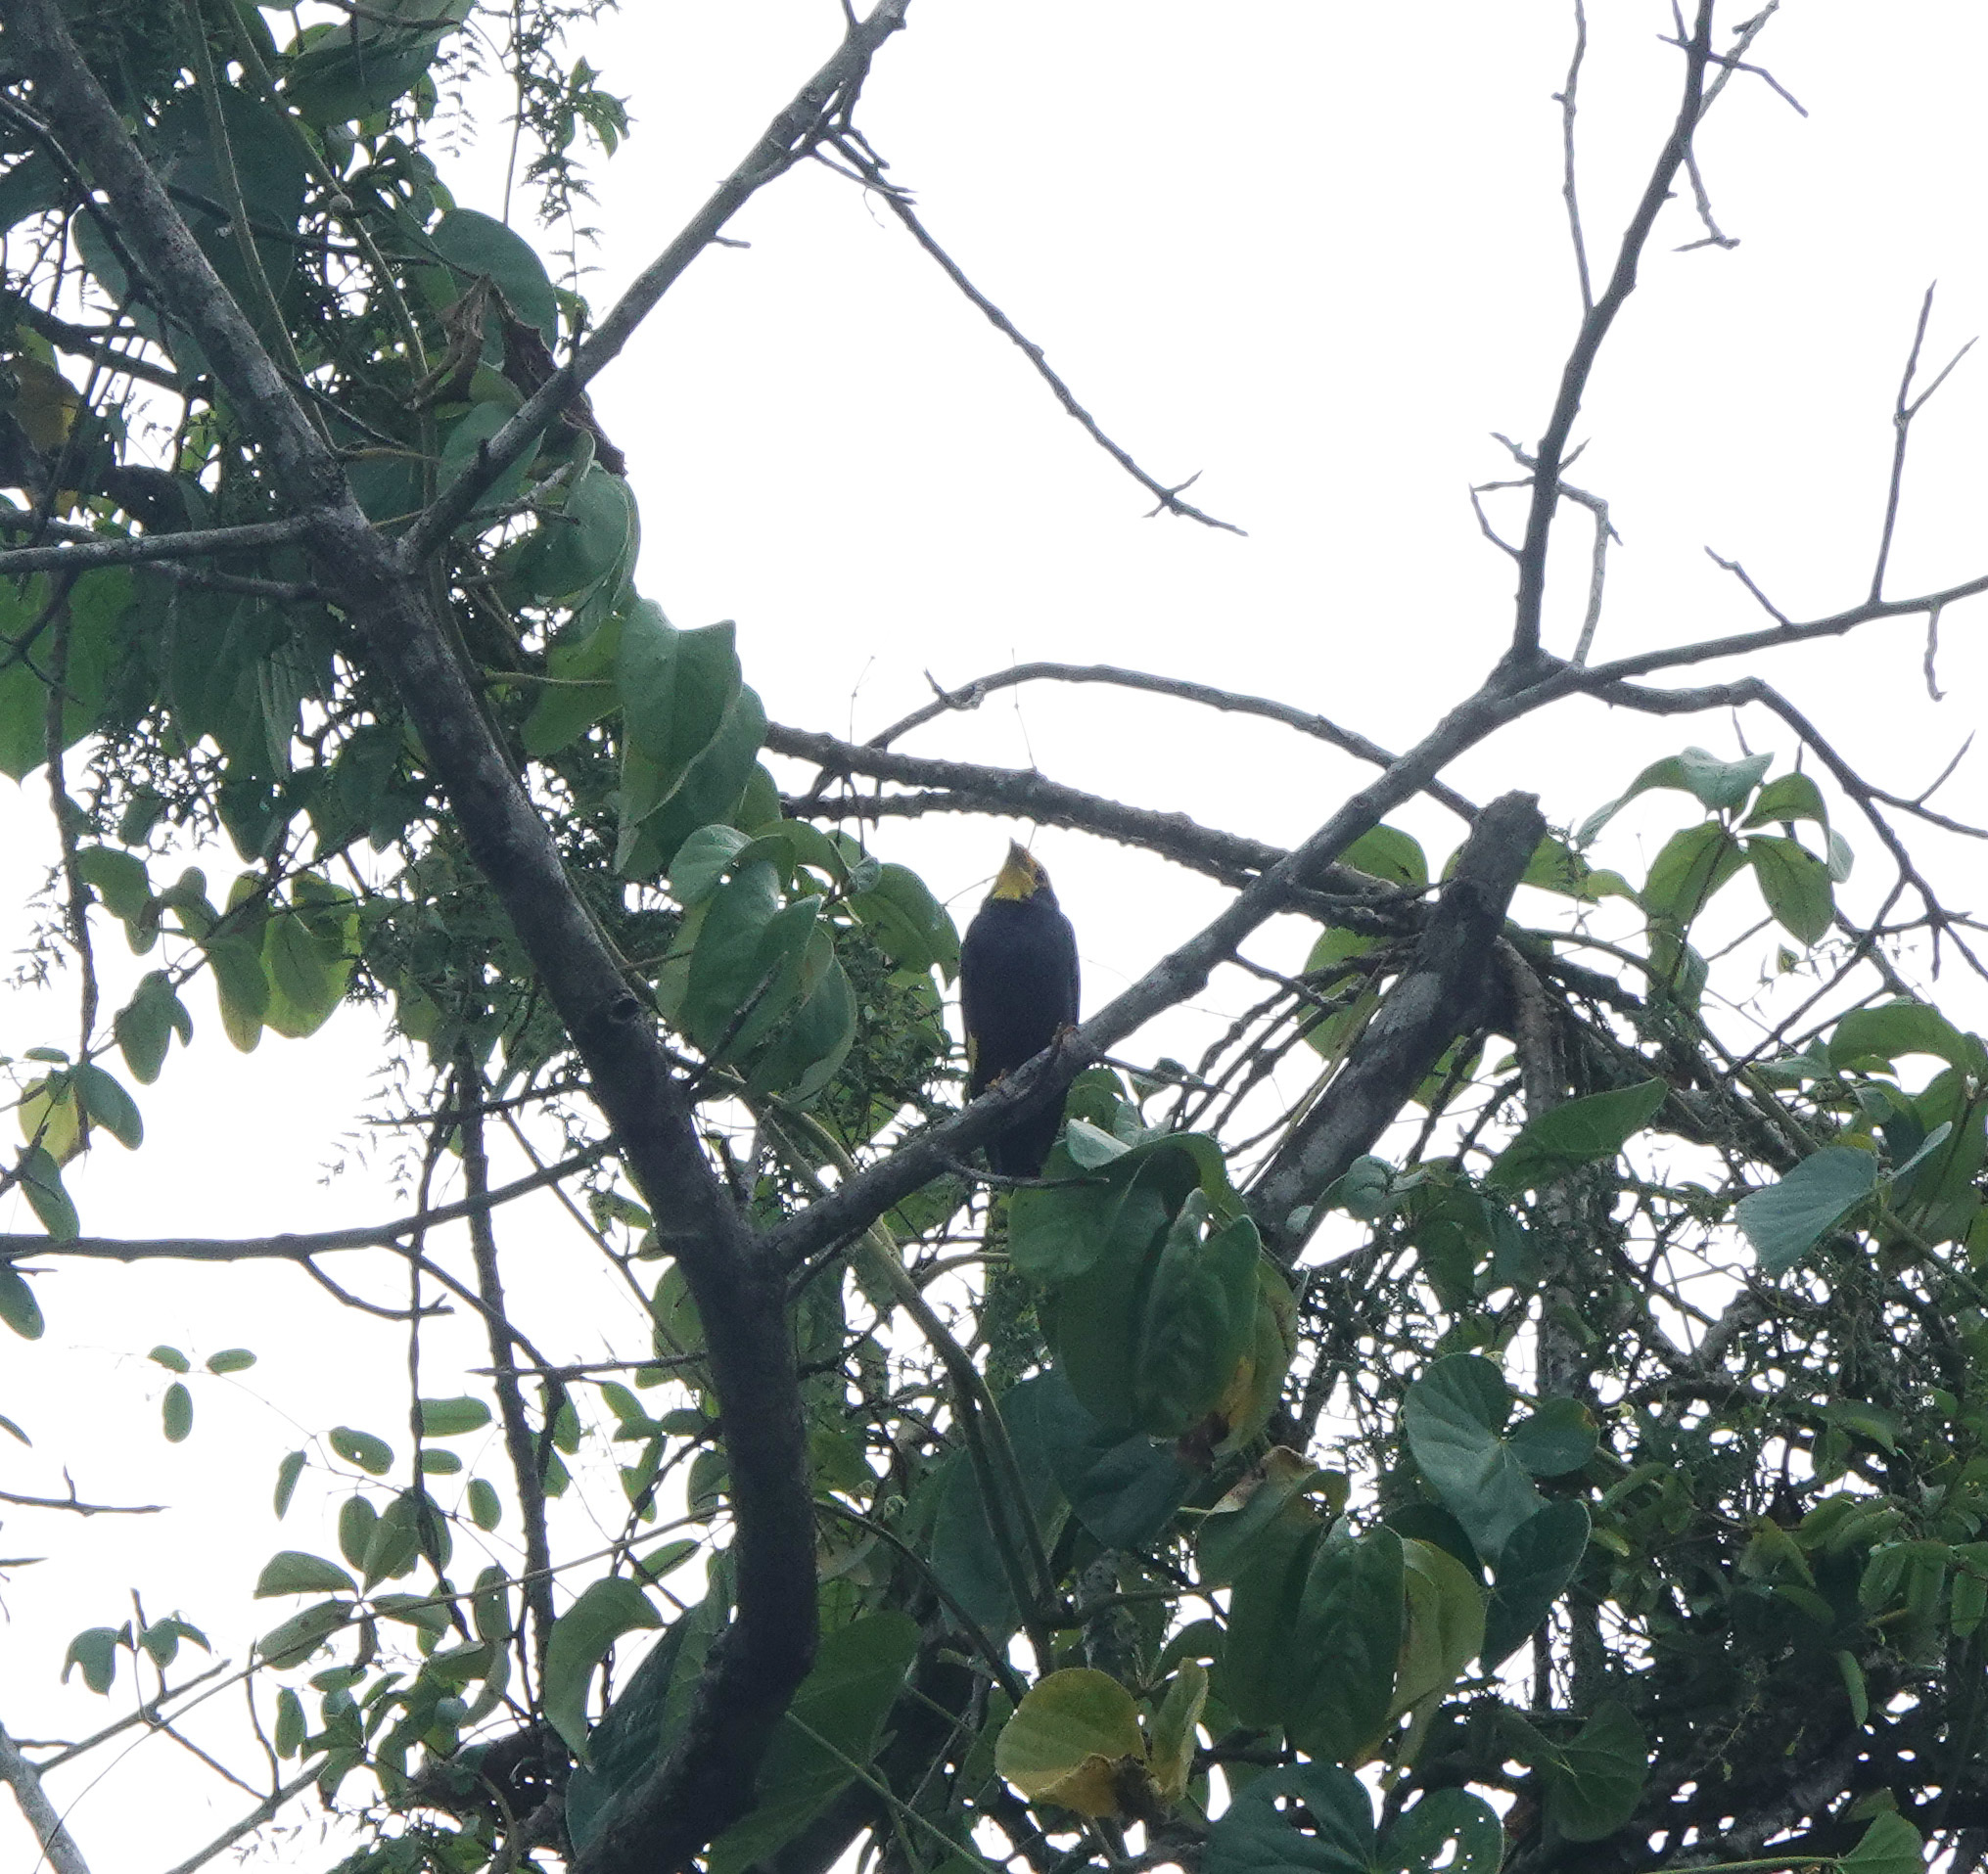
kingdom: Animalia
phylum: Chordata
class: Aves
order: Passeriformes
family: Sturnidae
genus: Ampeliceps
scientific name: Ampeliceps coronatus
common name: Golden-crested myna
